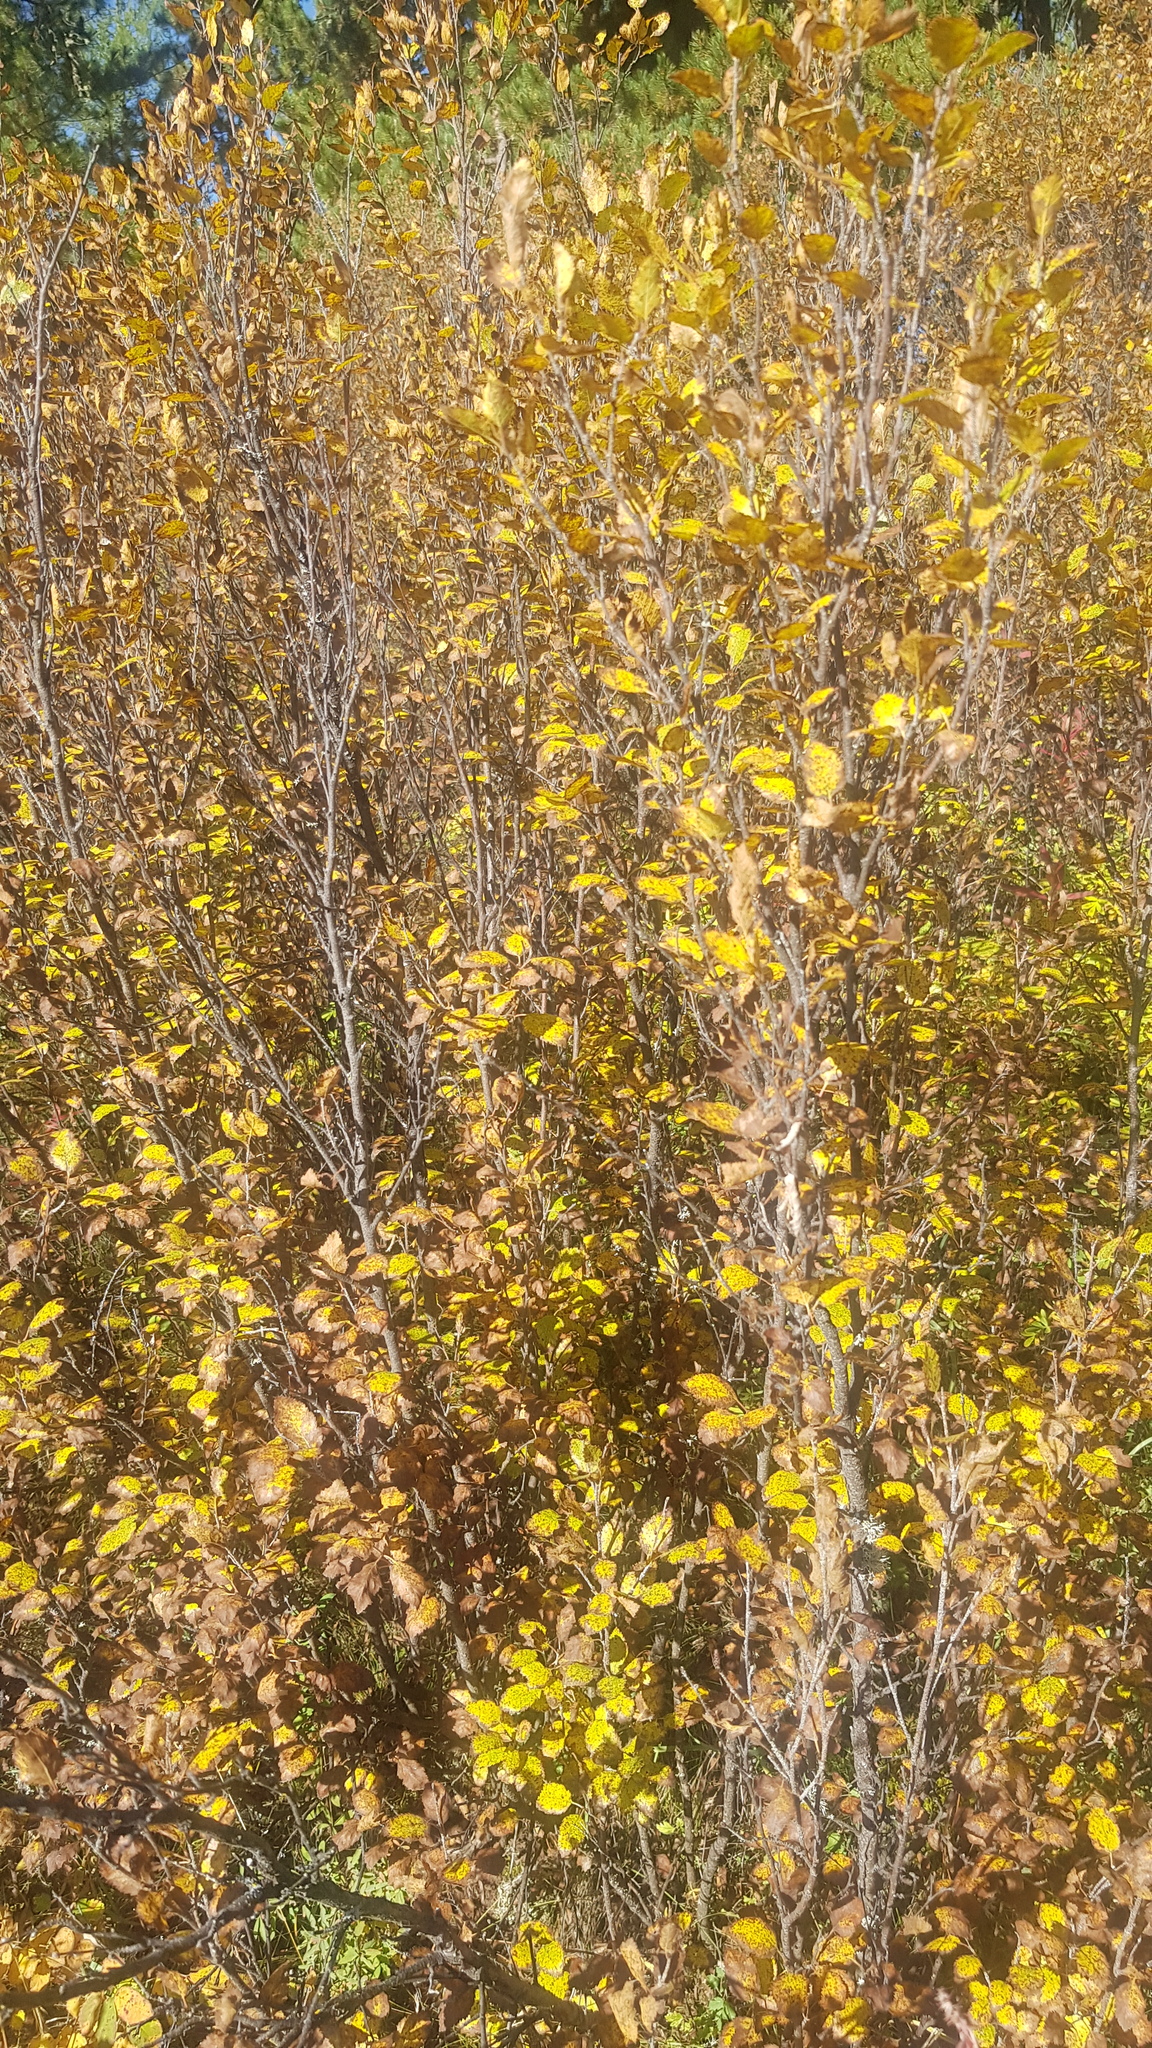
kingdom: Plantae
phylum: Tracheophyta
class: Magnoliopsida
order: Fagales
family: Betulaceae
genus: Betula
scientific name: Betula humilis
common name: Shrubby birch
